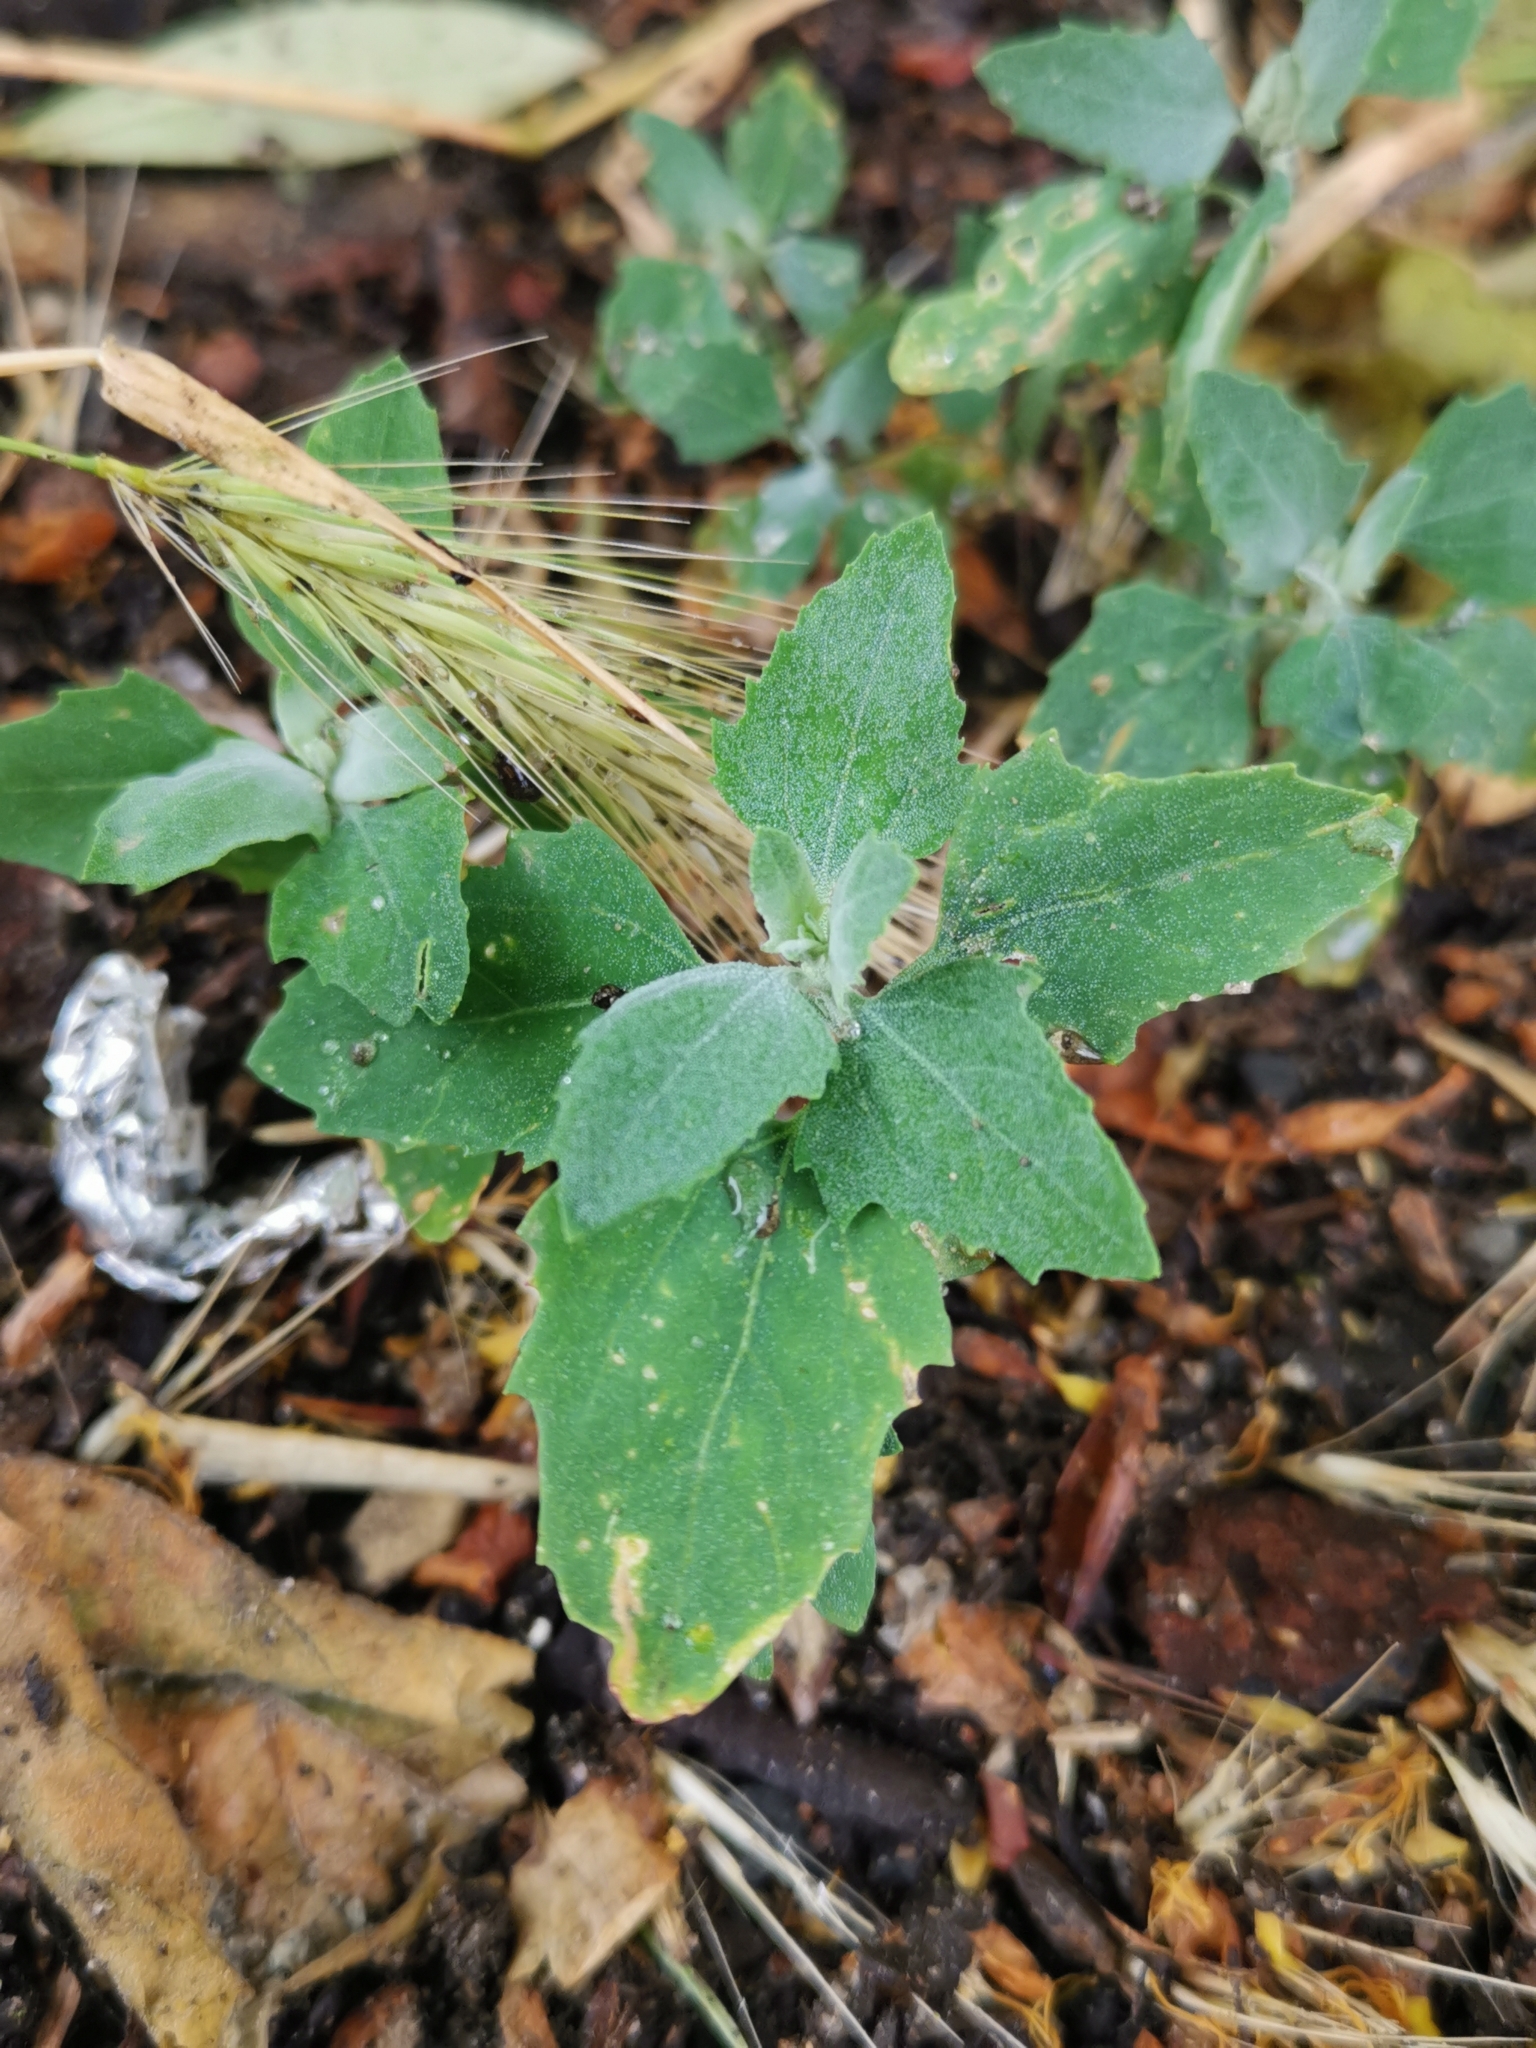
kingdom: Plantae
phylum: Tracheophyta
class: Magnoliopsida
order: Caryophyllales
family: Amaranthaceae
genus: Chenopodium
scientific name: Chenopodium album
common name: Fat-hen
